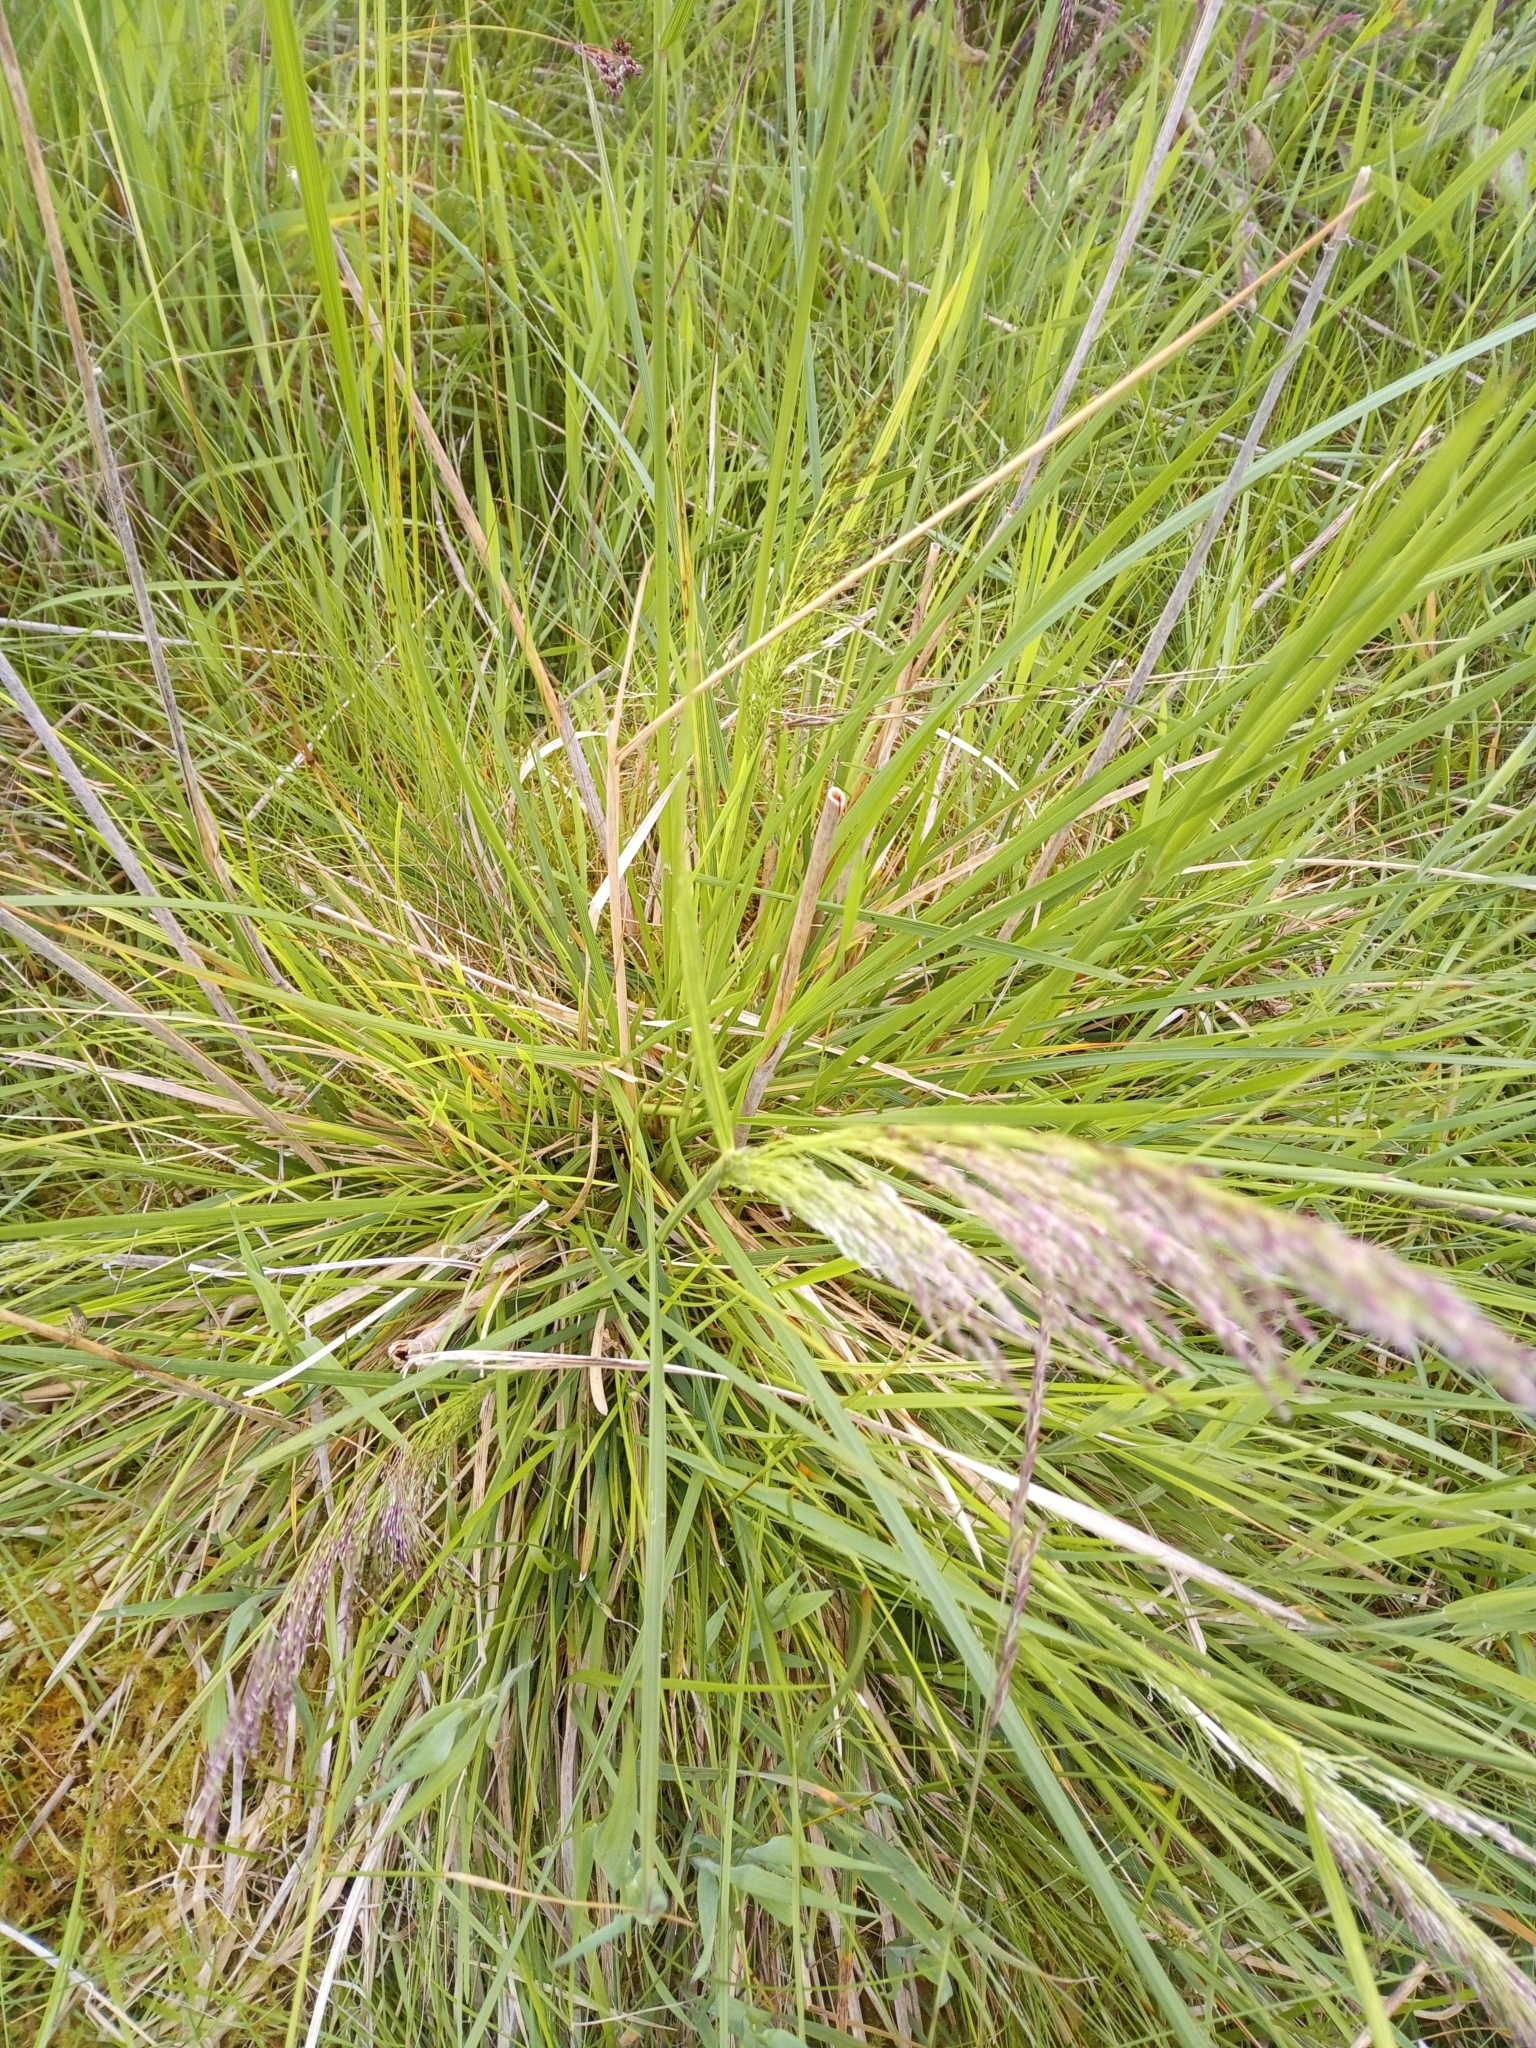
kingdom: Plantae
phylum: Tracheophyta
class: Liliopsida
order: Poales
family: Poaceae
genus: Deschampsia
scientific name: Deschampsia cespitosa
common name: Tufted hair-grass
